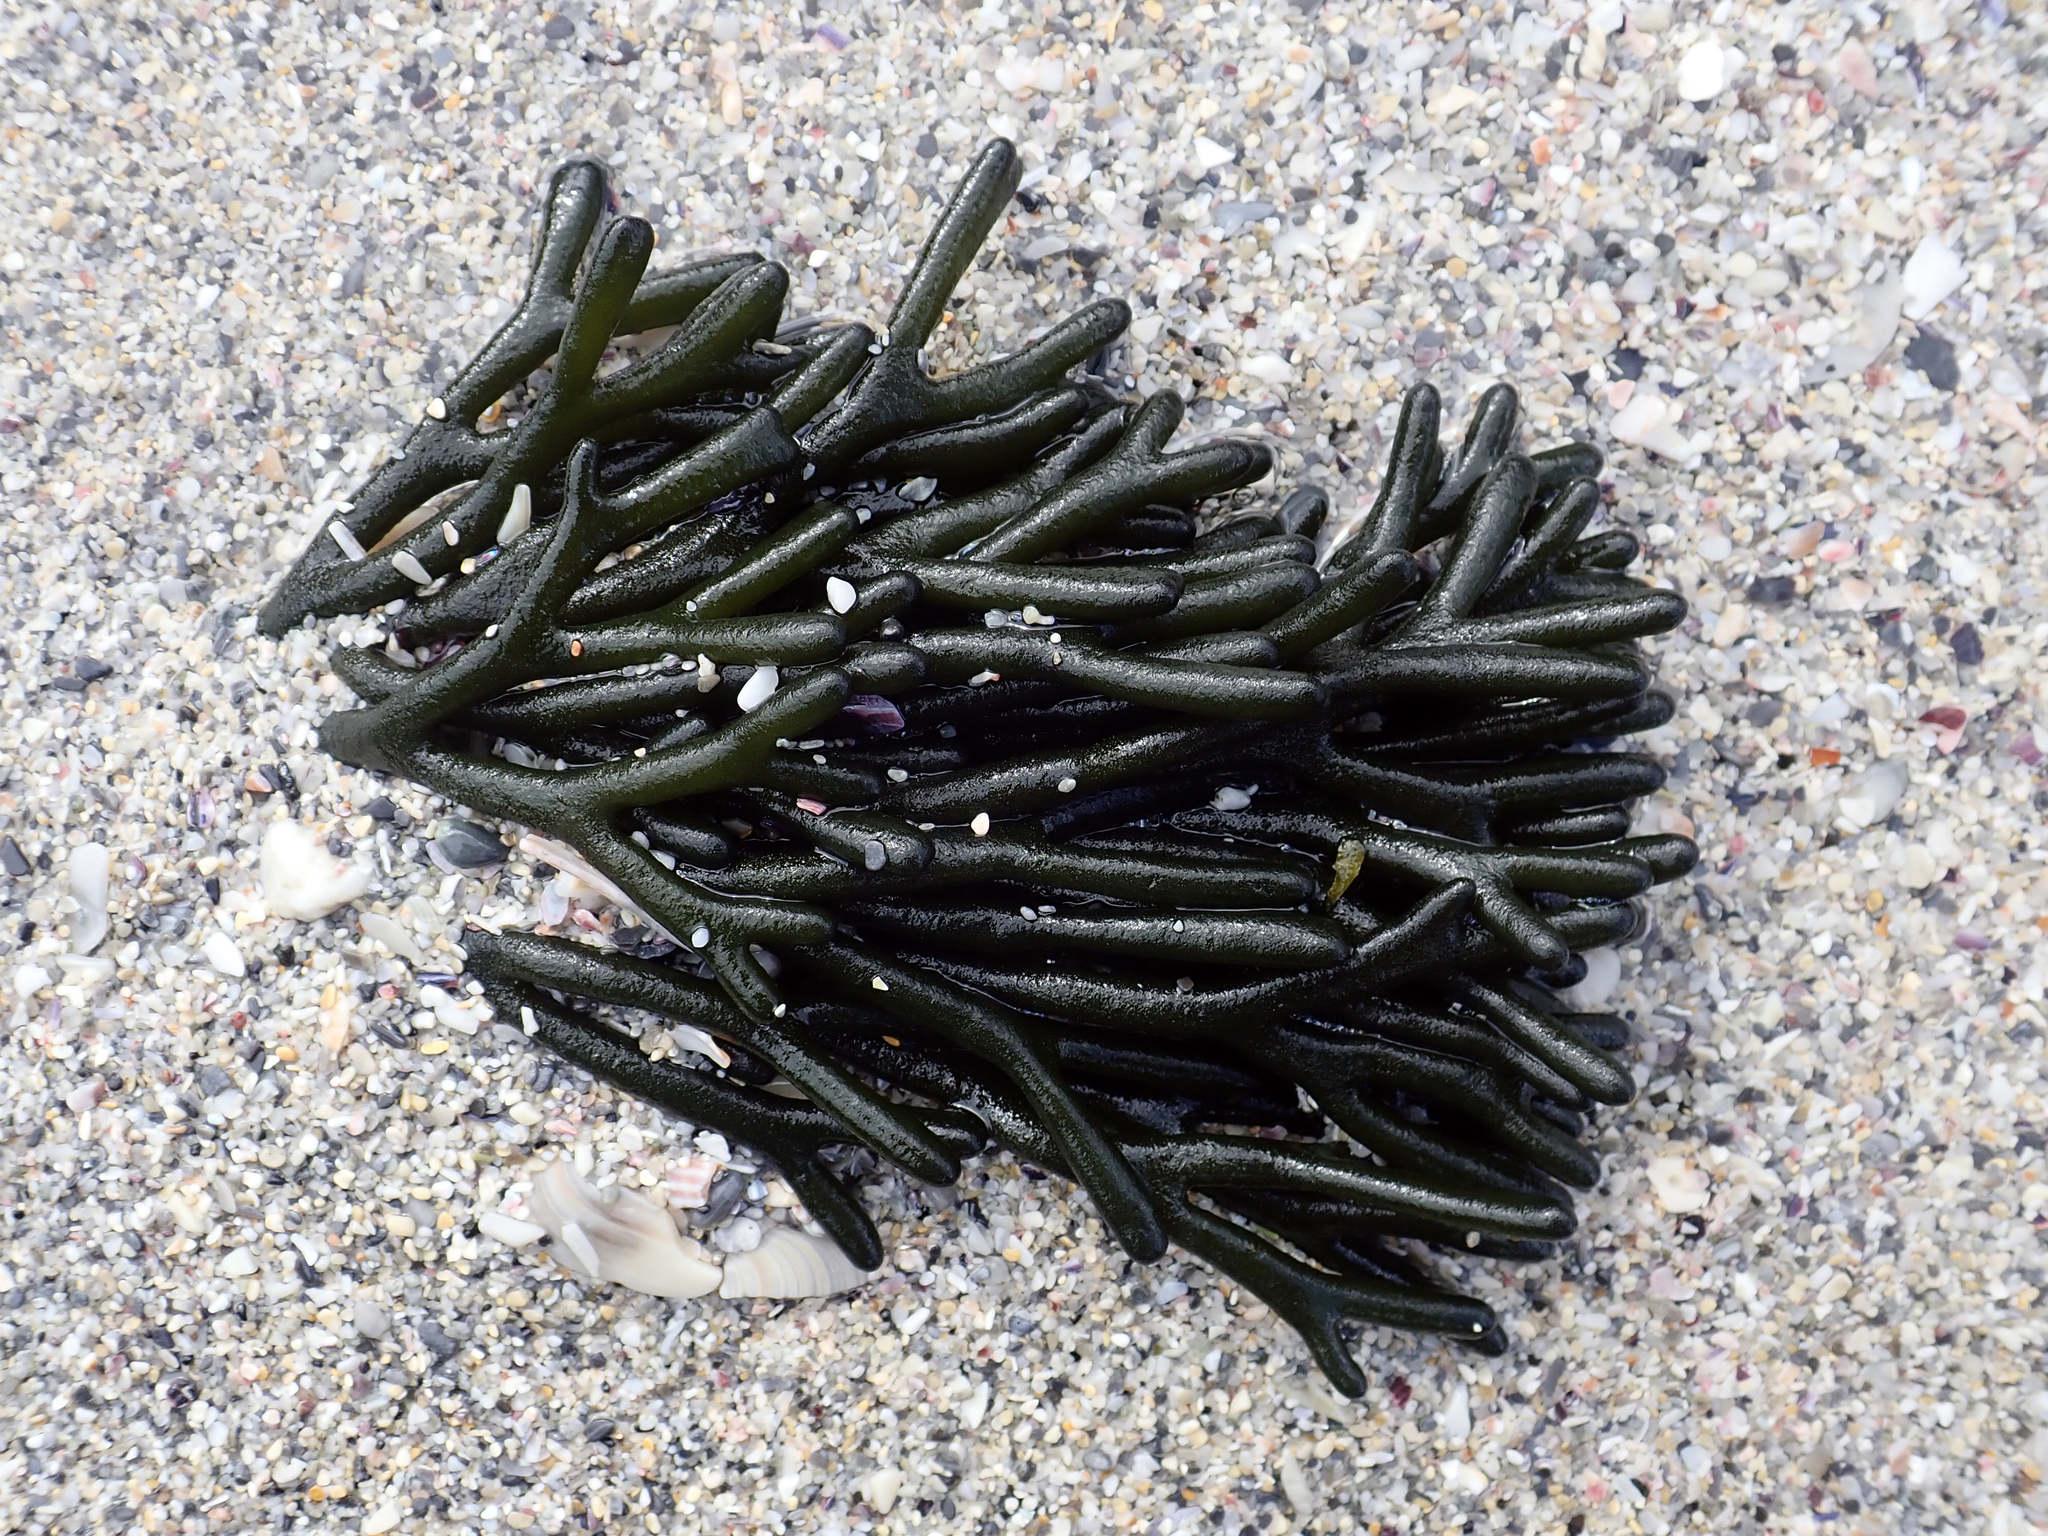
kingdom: Plantae
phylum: Chlorophyta
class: Ulvophyceae
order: Bryopsidales
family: Codiaceae
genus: Codium
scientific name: Codium fragile
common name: Dead man's fingers
